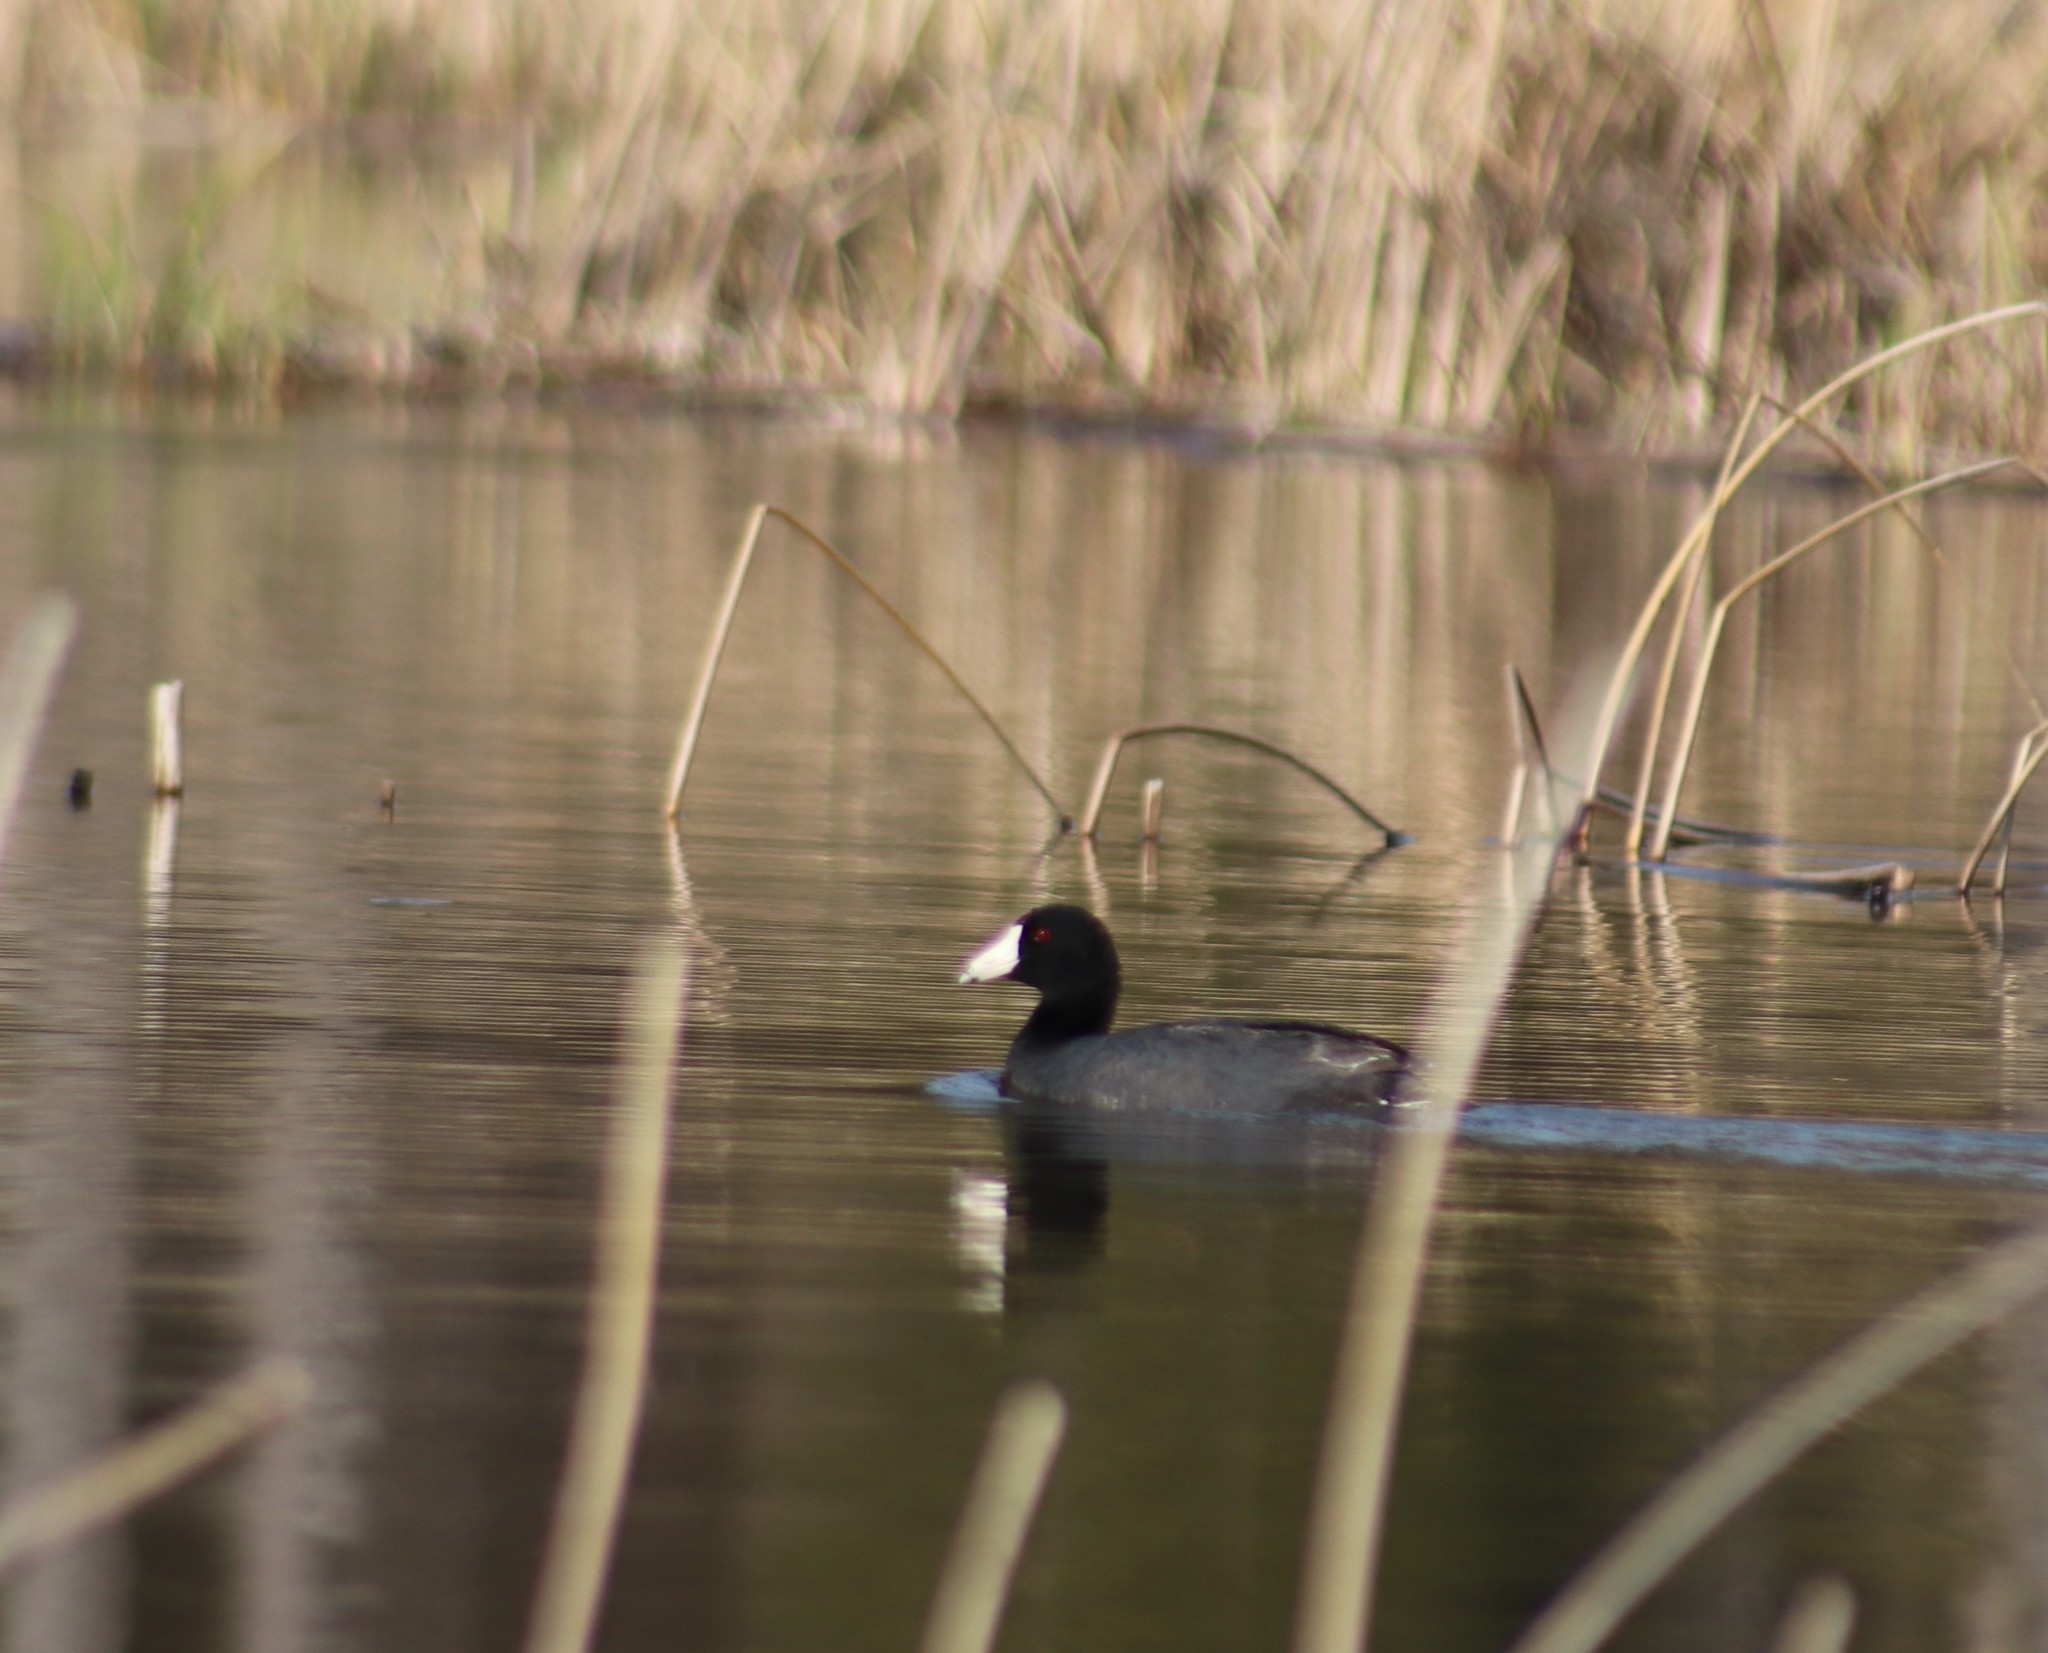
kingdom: Animalia
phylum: Chordata
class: Aves
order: Gruiformes
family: Rallidae
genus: Fulica
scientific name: Fulica americana
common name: American coot
